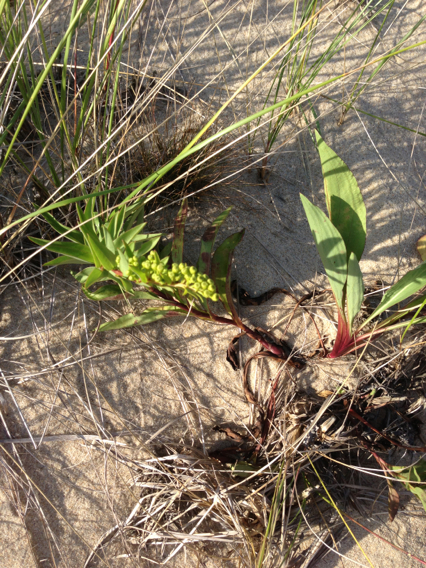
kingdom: Plantae
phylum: Tracheophyta
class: Magnoliopsida
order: Asterales
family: Asteraceae
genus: Solidago
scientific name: Solidago sempervirens
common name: Salt-marsh goldenrod
